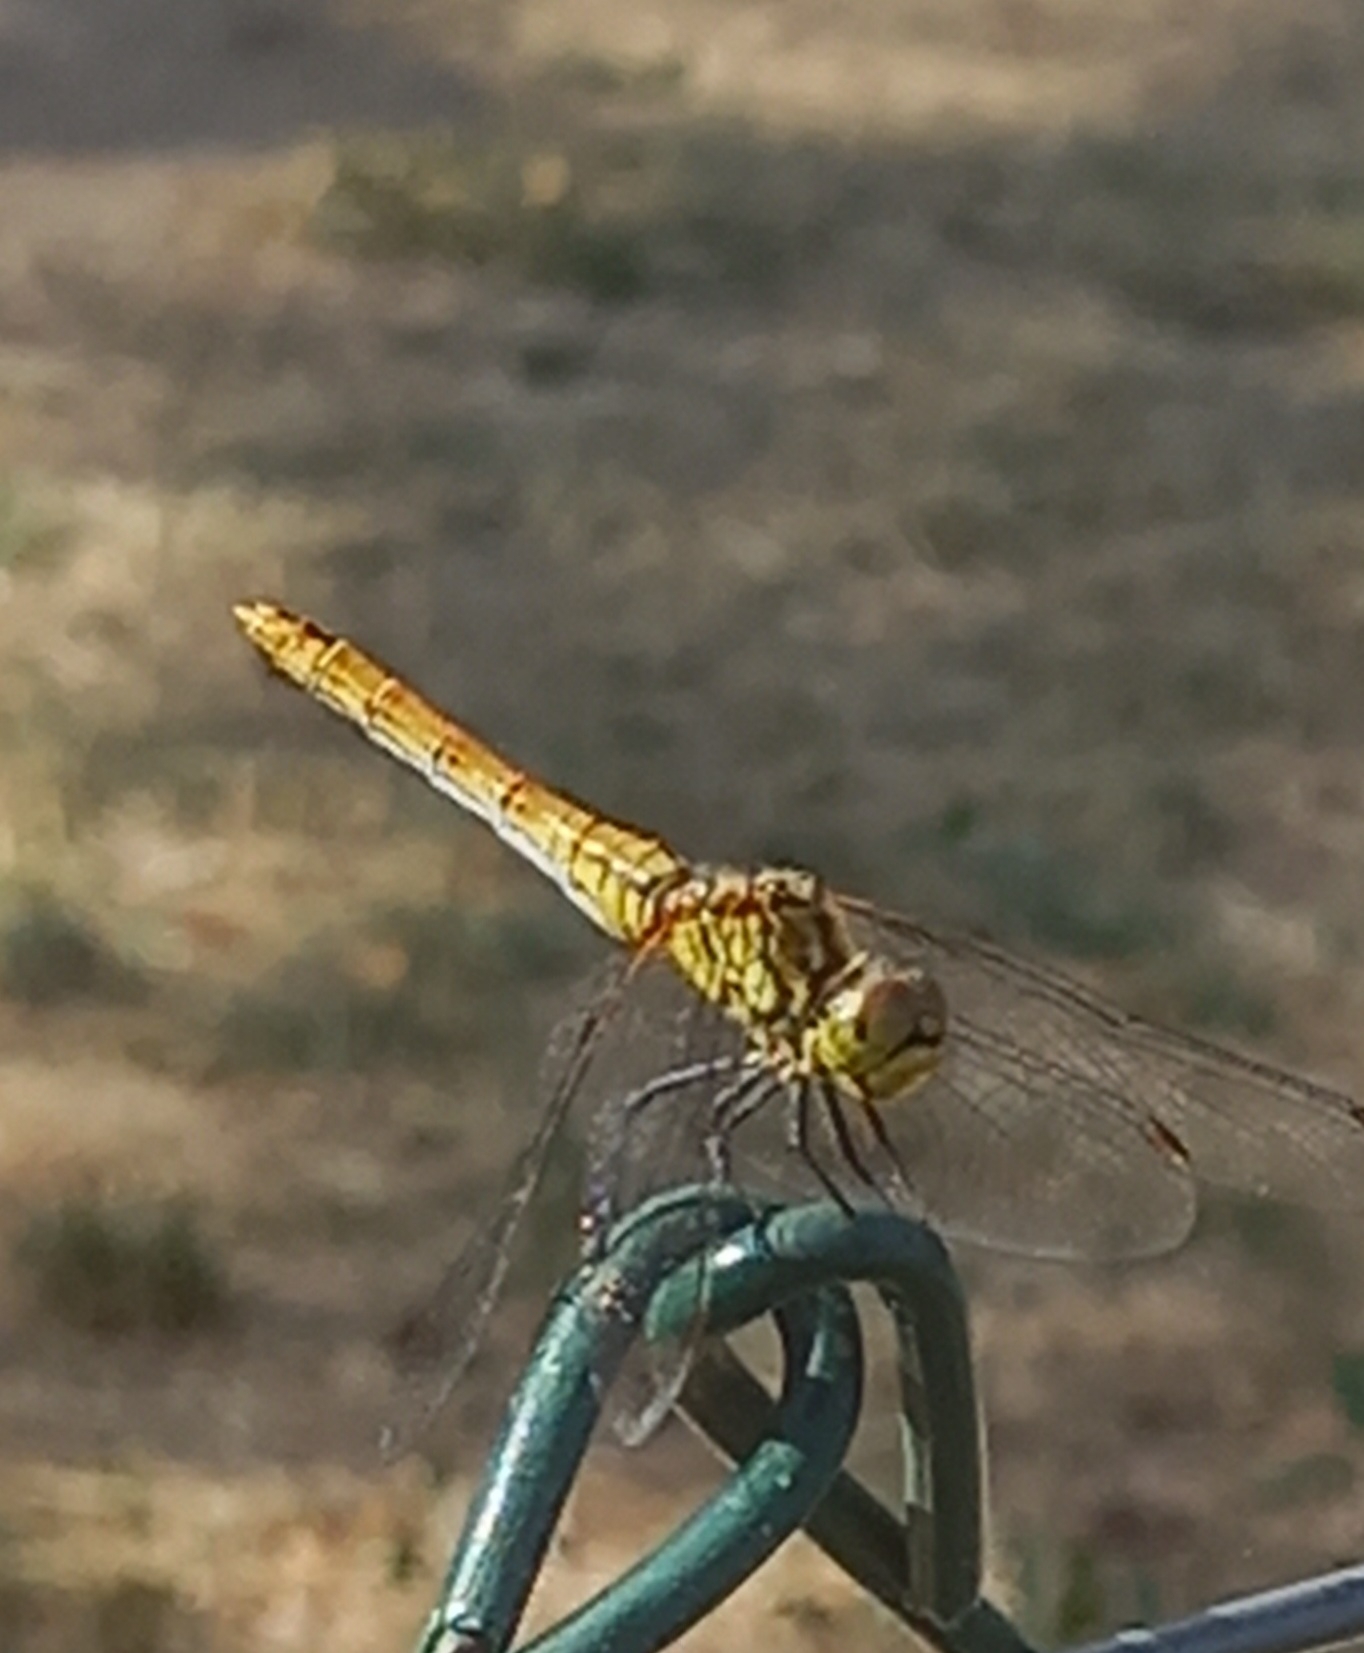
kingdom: Animalia
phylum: Arthropoda
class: Insecta
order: Odonata
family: Libellulidae
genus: Sympetrum
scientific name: Sympetrum sanguineum
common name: Ruddy darter
